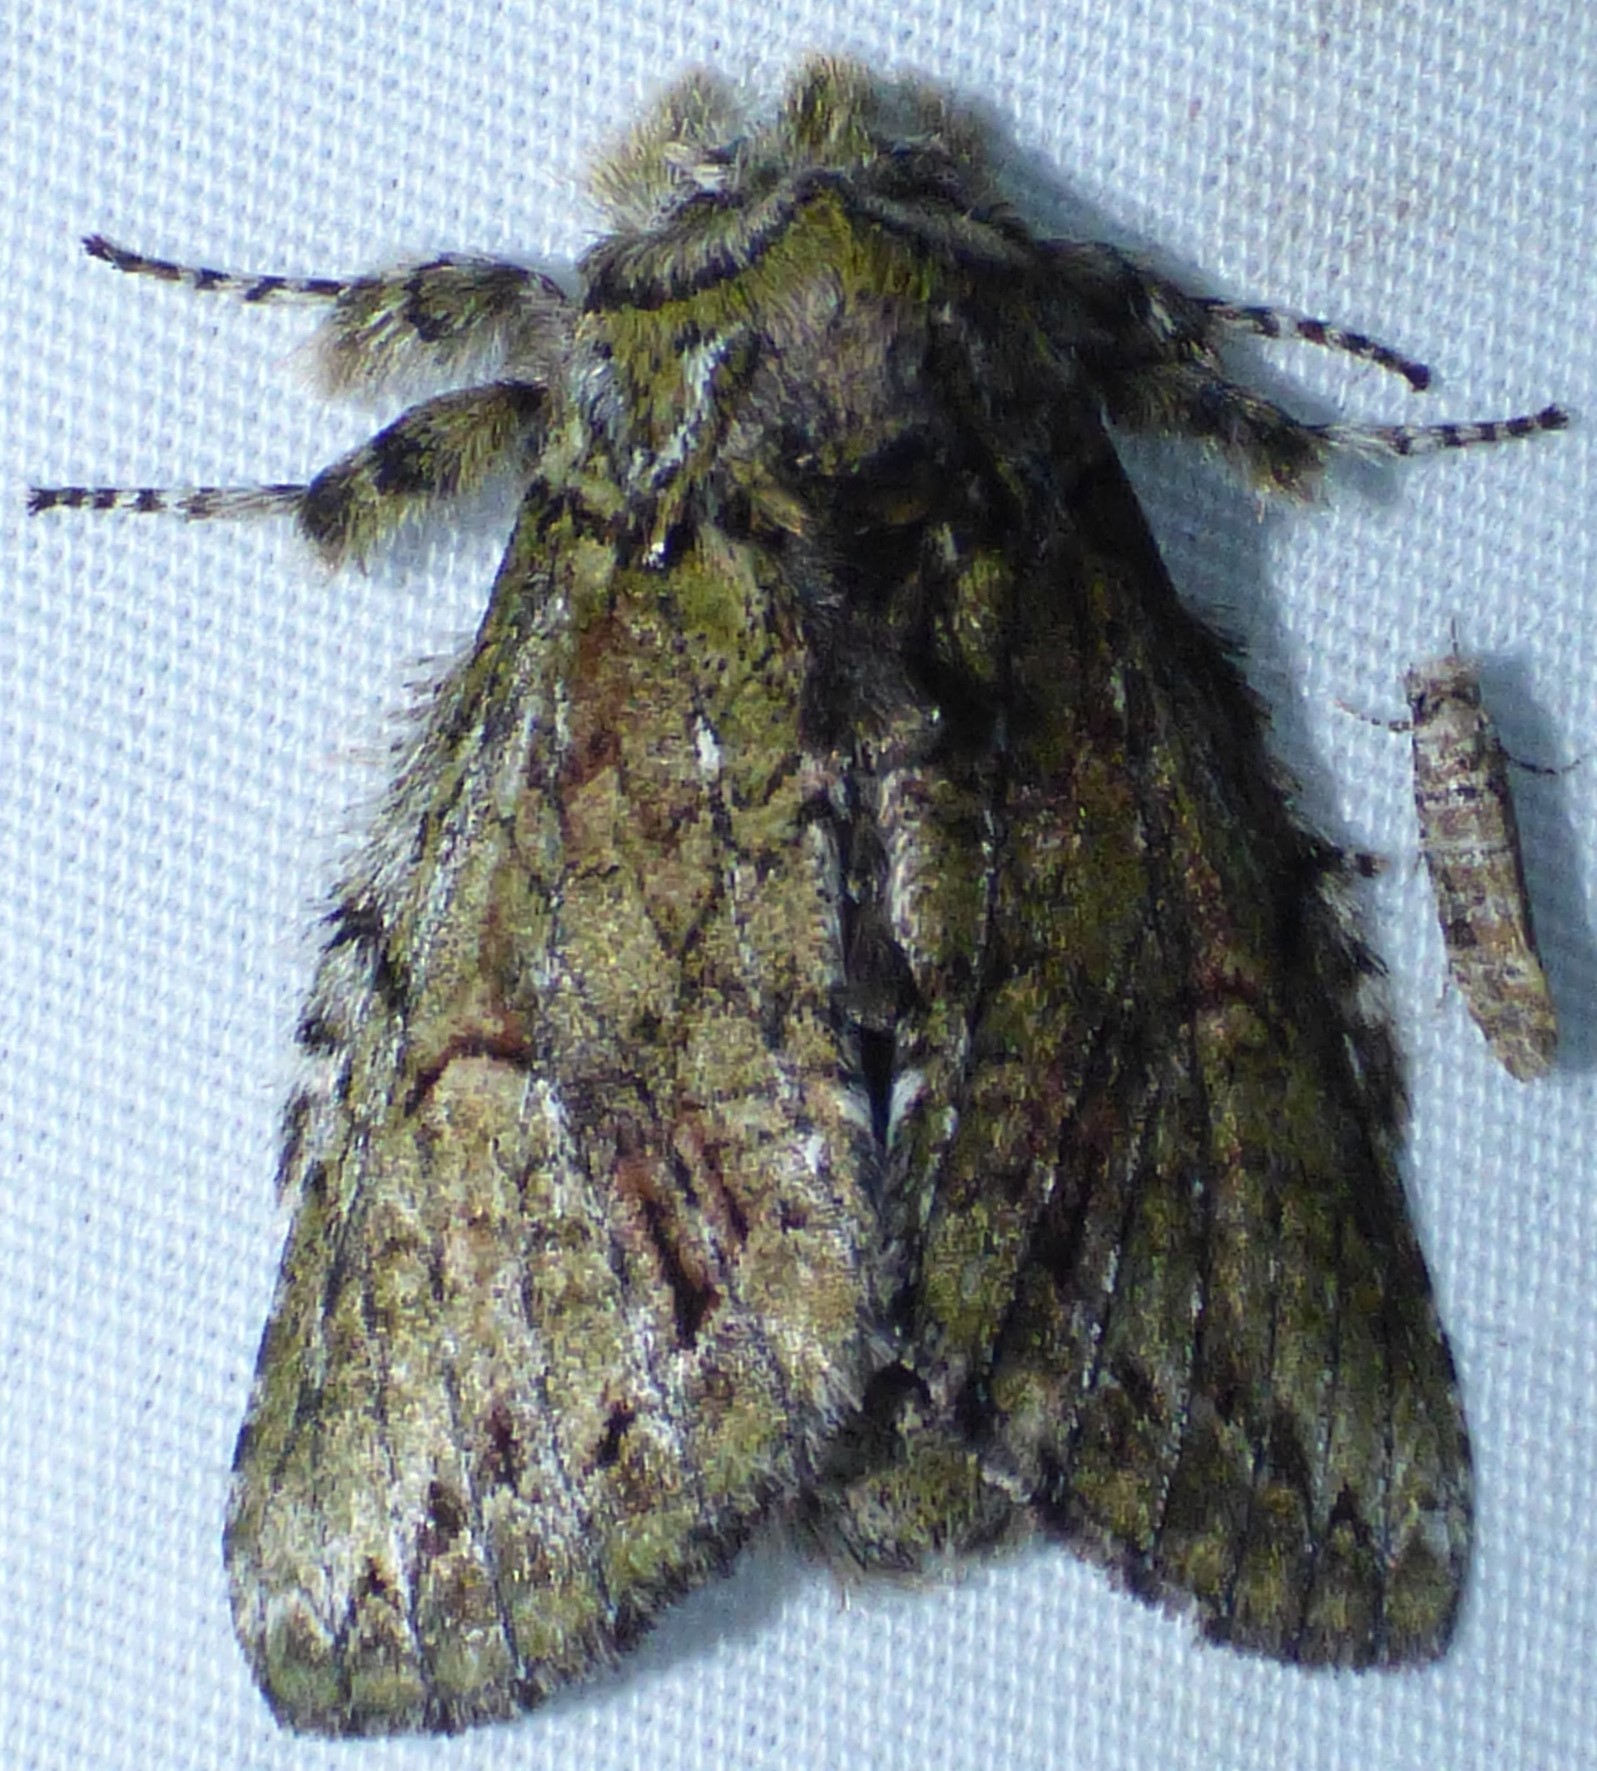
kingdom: Animalia
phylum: Arthropoda
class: Insecta
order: Lepidoptera
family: Notodontidae
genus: Heterocampa
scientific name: Heterocampa
